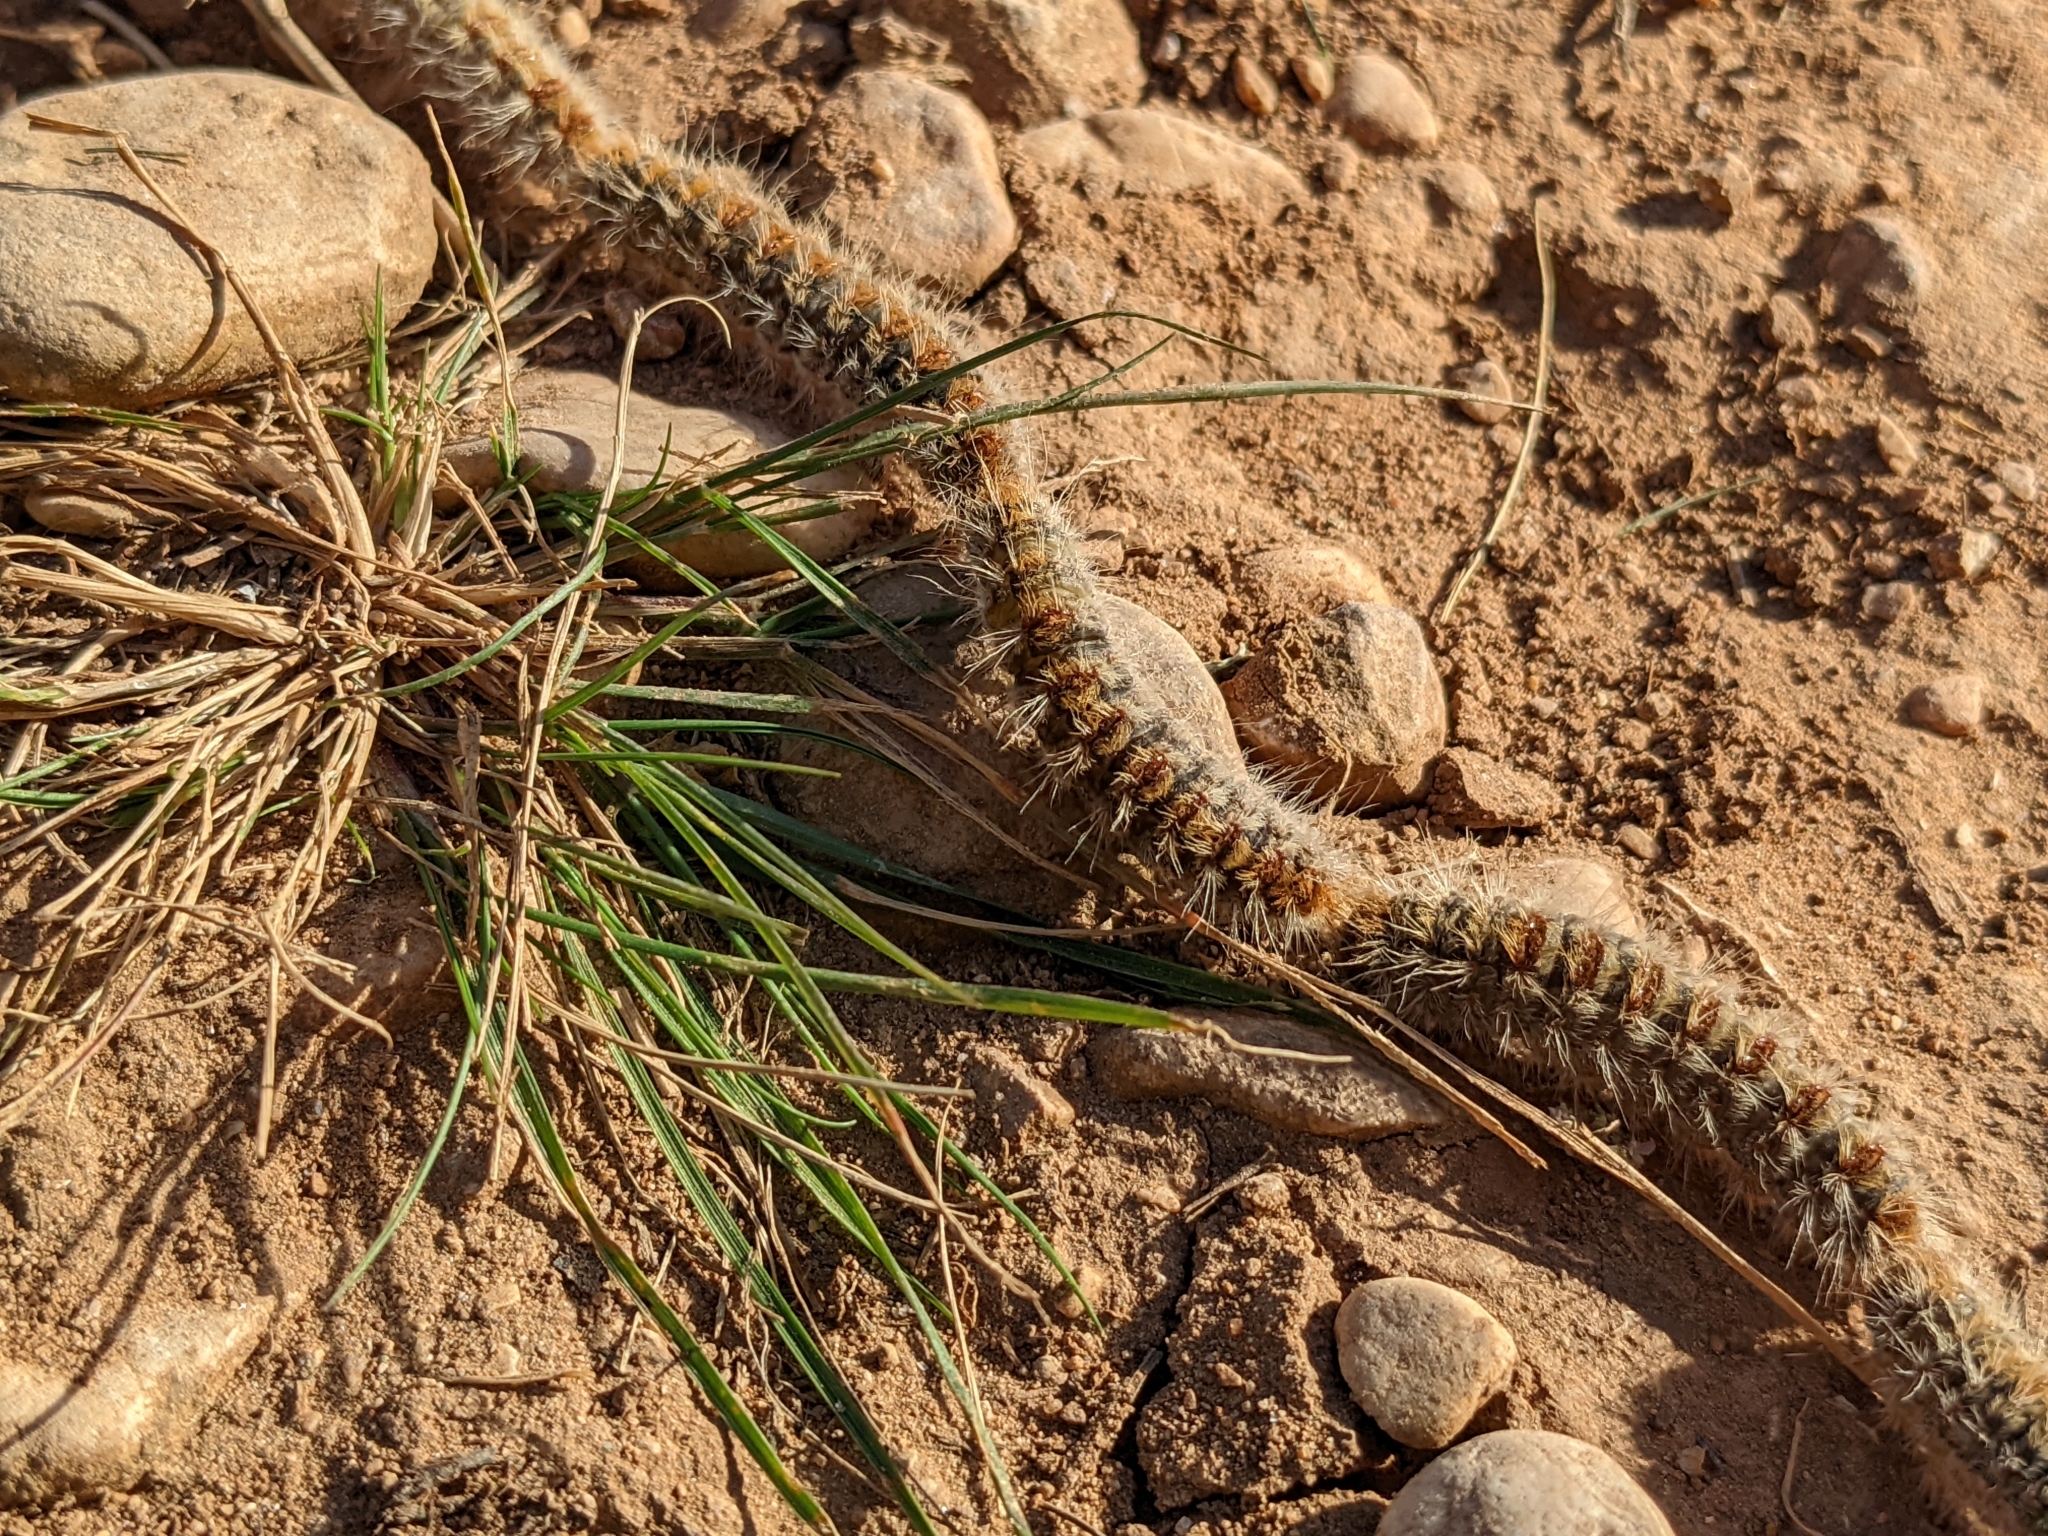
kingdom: Animalia
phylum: Arthropoda
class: Insecta
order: Lepidoptera
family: Notodontidae
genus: Thaumetopoea
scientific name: Thaumetopoea pityocampa
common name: Pine processionary
